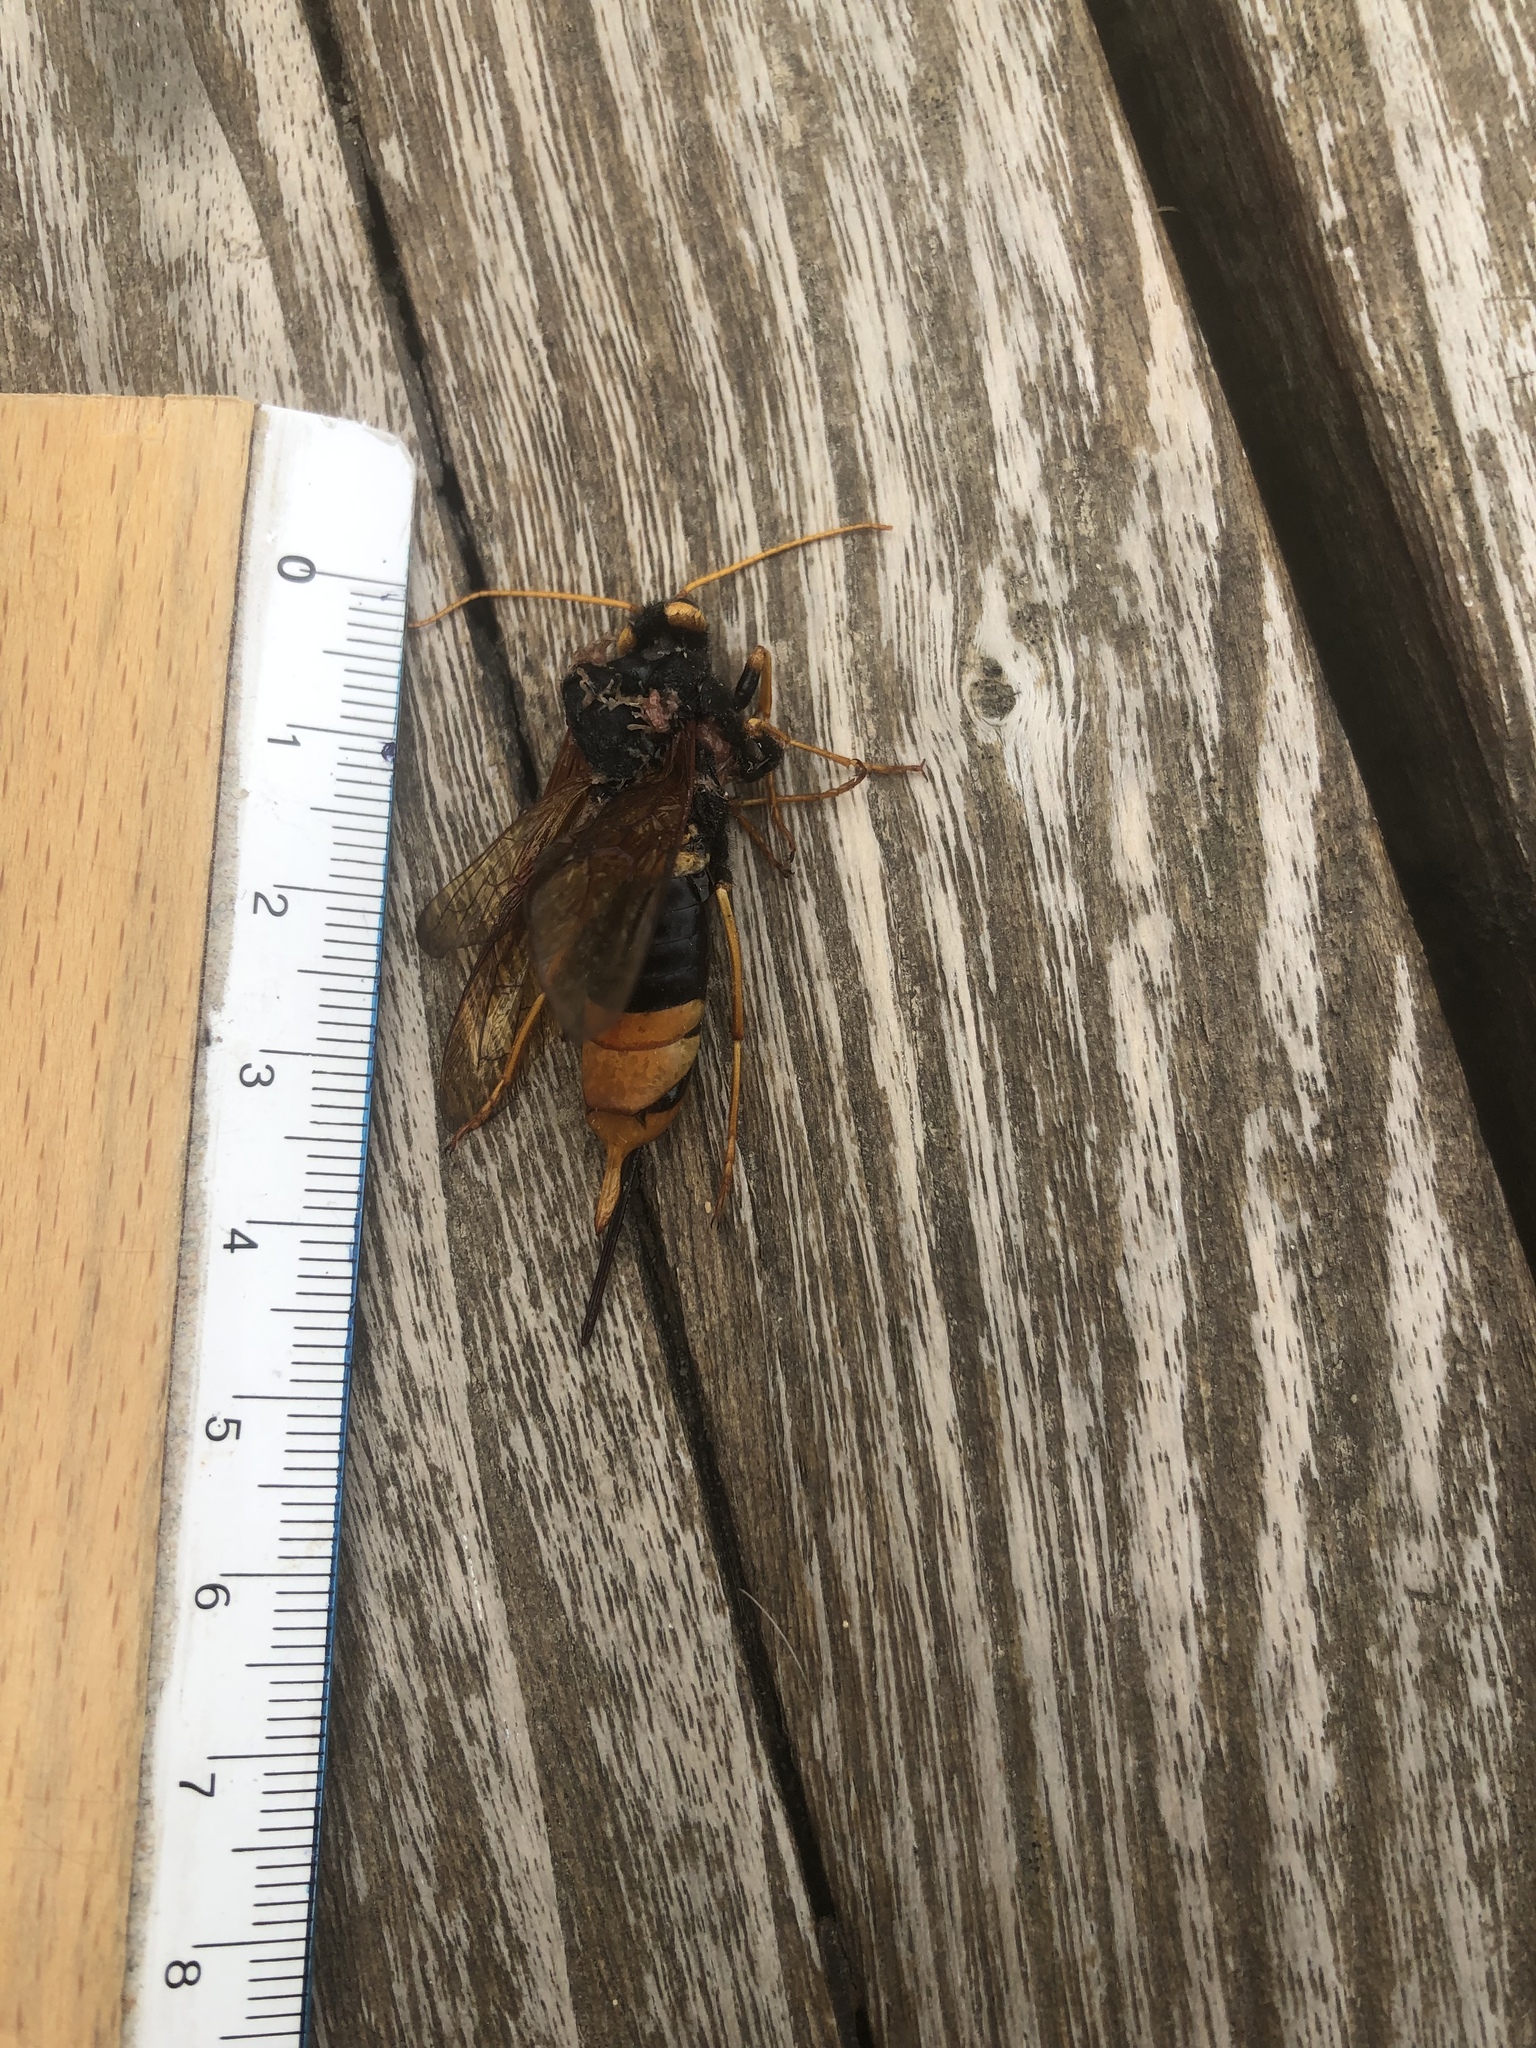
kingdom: Animalia
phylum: Arthropoda
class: Insecta
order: Hymenoptera
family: Siricidae
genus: Urocerus
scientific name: Urocerus gigas
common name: Giant woodwasp
